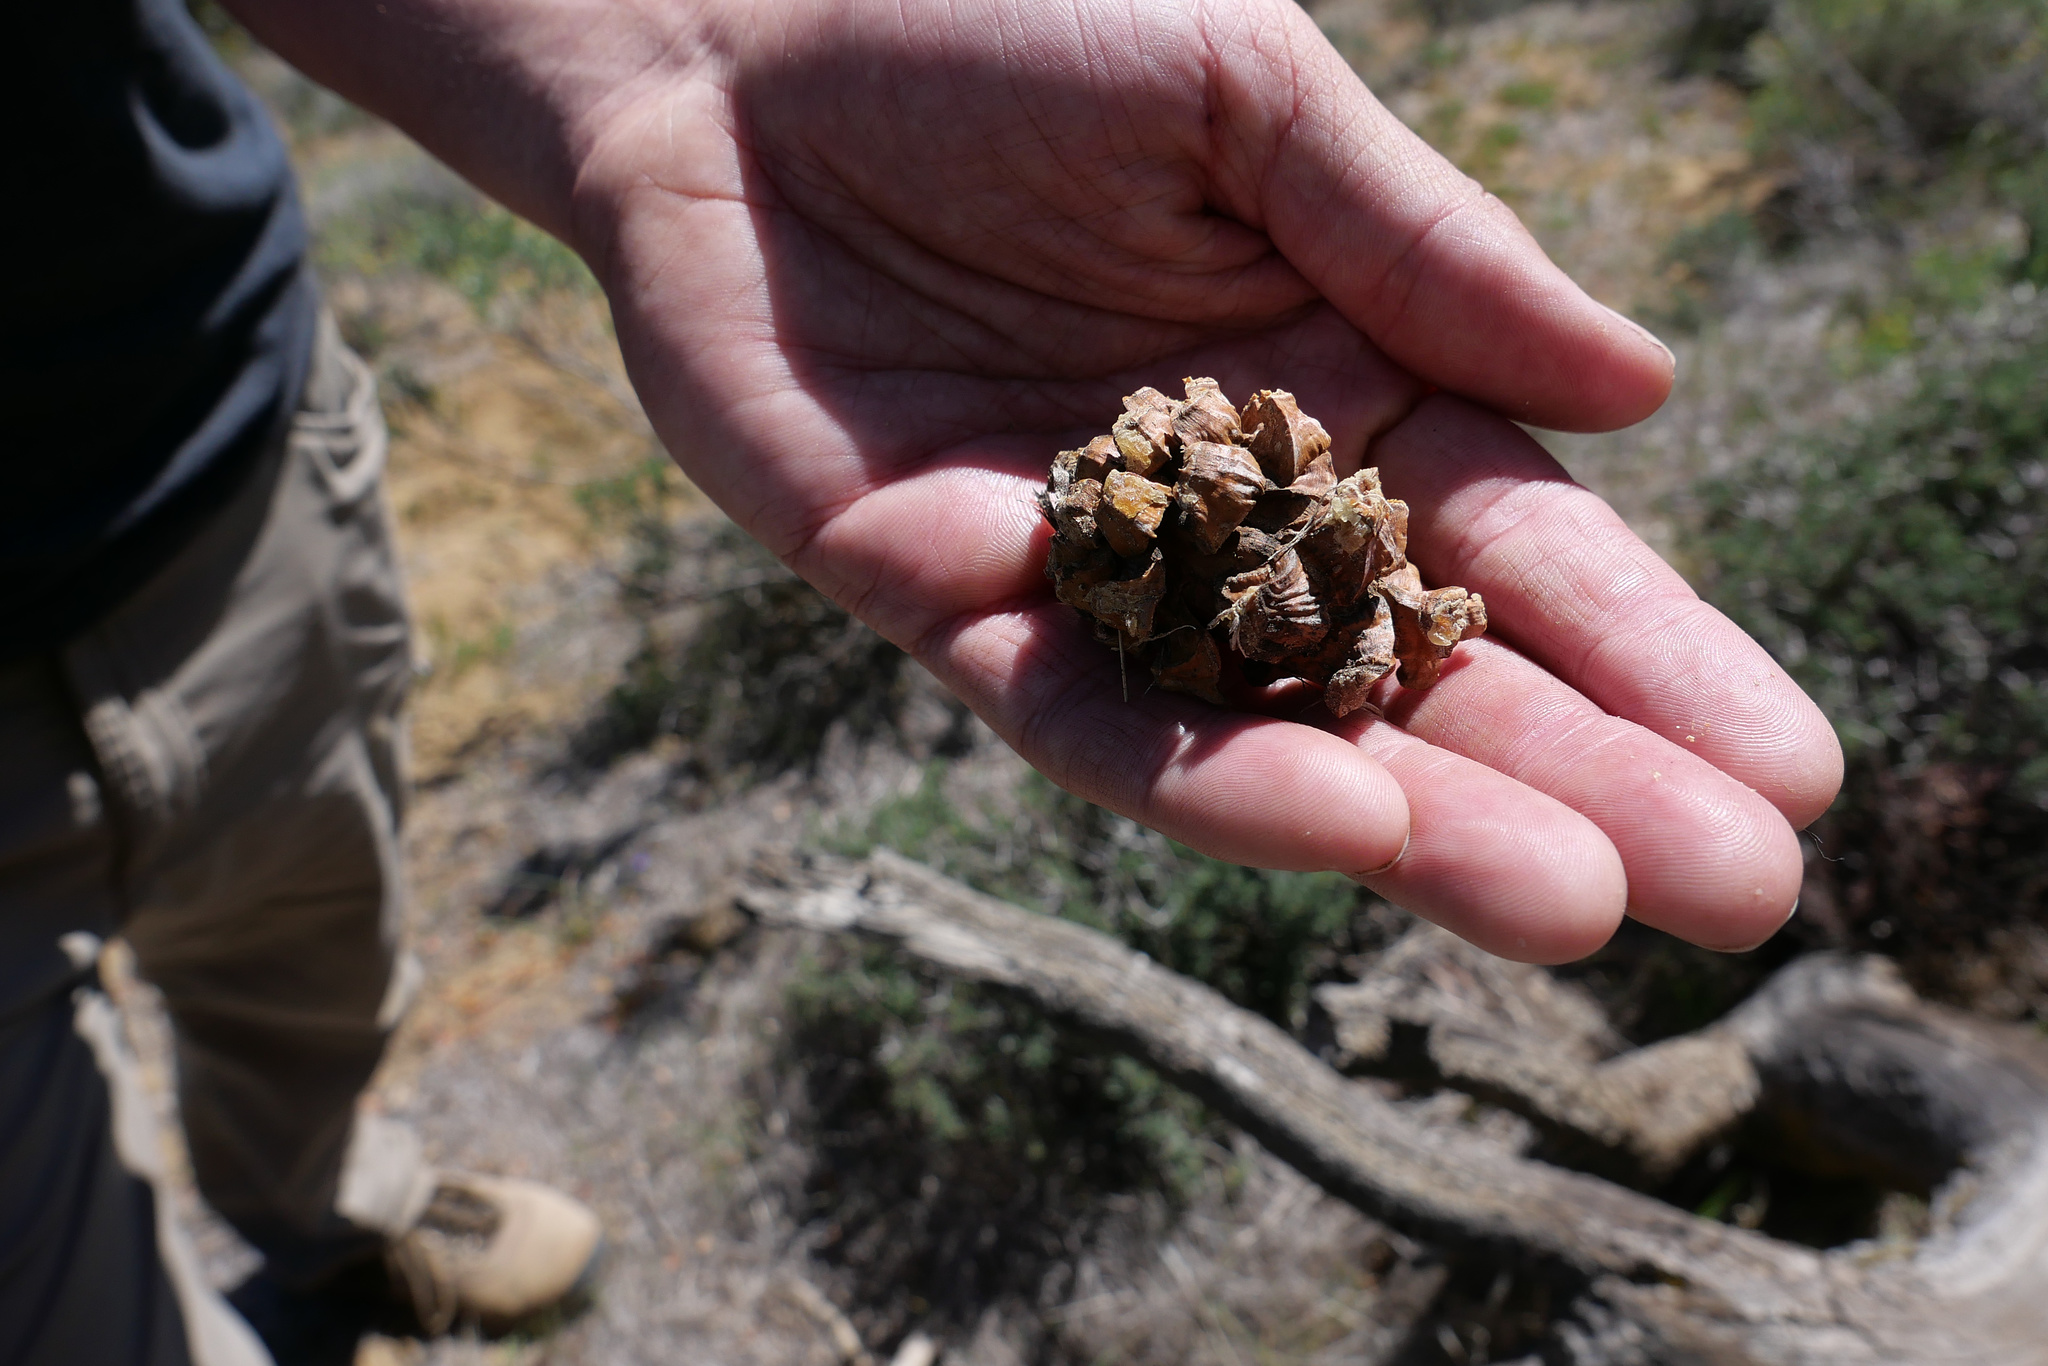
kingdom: Plantae
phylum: Tracheophyta
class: Pinopsida
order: Pinales
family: Pinaceae
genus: Pinus
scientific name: Pinus monophylla
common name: One-leaved nut pine
